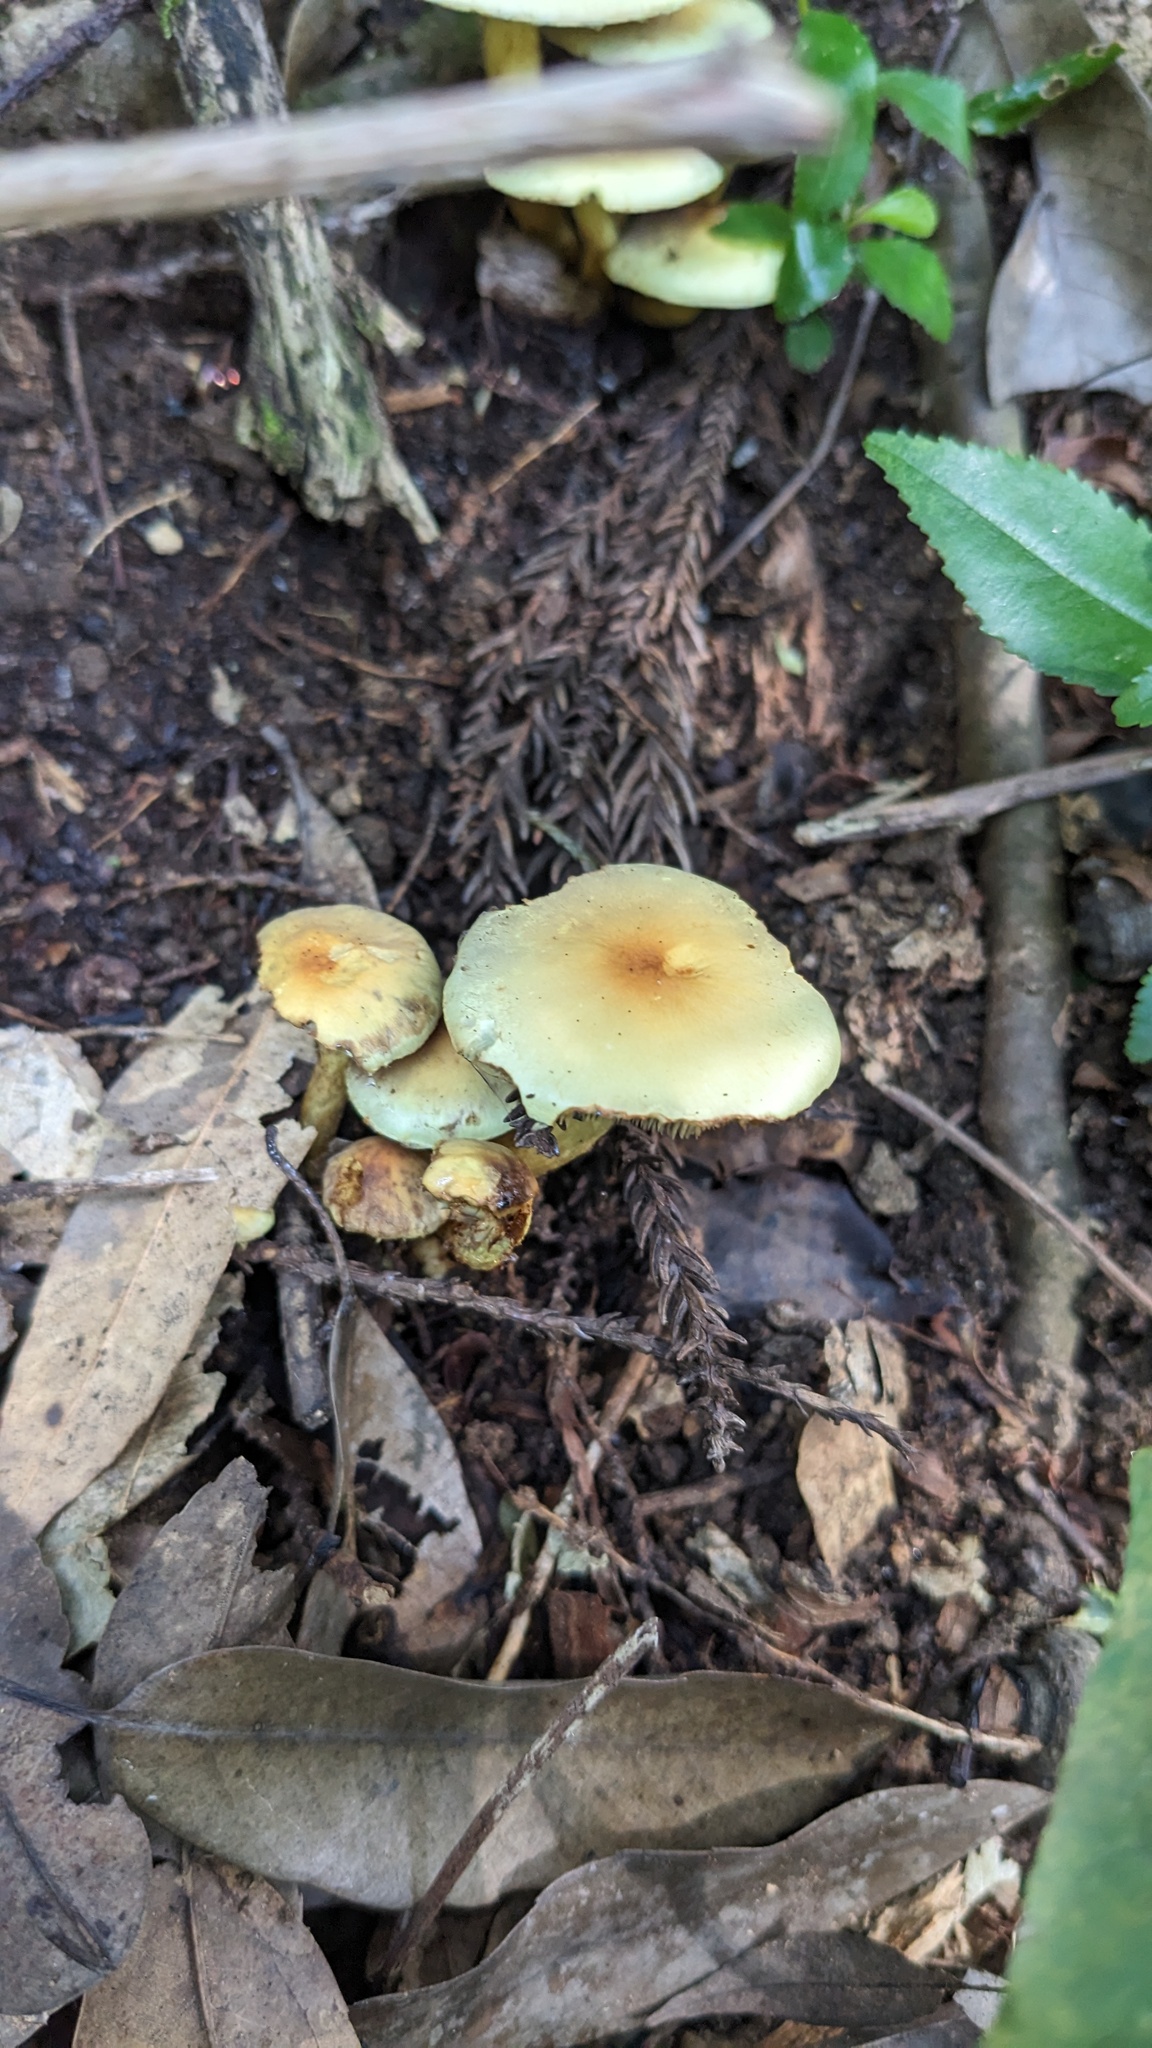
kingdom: Fungi
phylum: Basidiomycota
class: Agaricomycetes
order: Agaricales
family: Strophariaceae
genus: Hypholoma
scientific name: Hypholoma fasciculare
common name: Sulphur tuft
